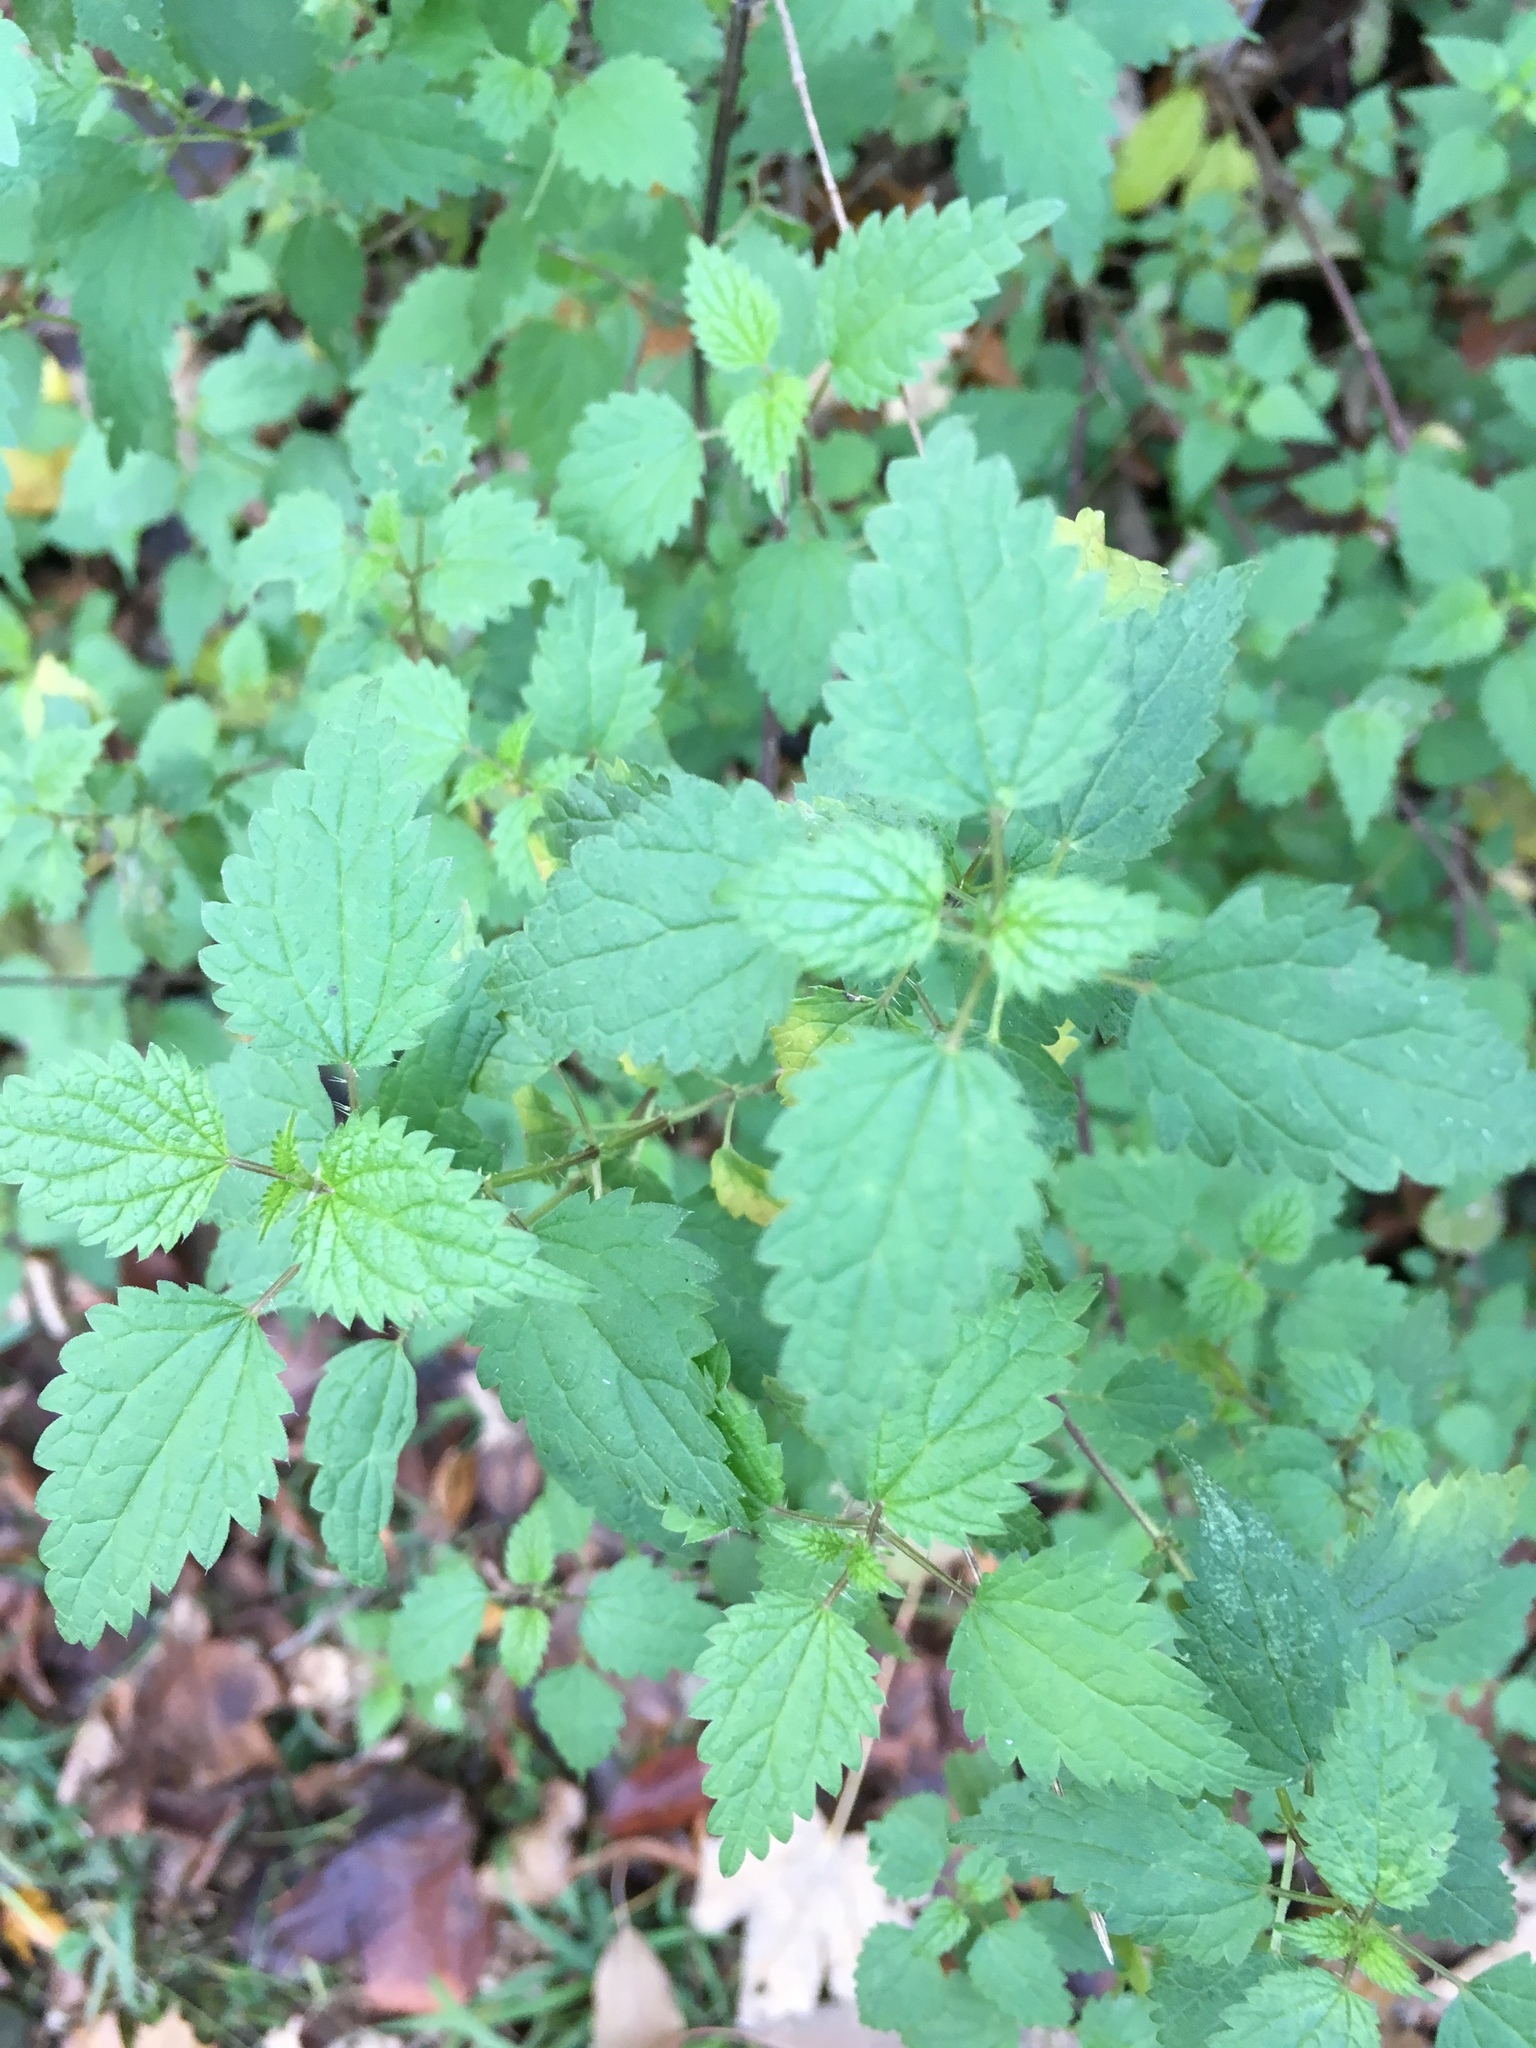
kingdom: Plantae
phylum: Tracheophyta
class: Magnoliopsida
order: Rosales
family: Urticaceae
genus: Urtica
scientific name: Urtica dioica
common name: Common nettle
